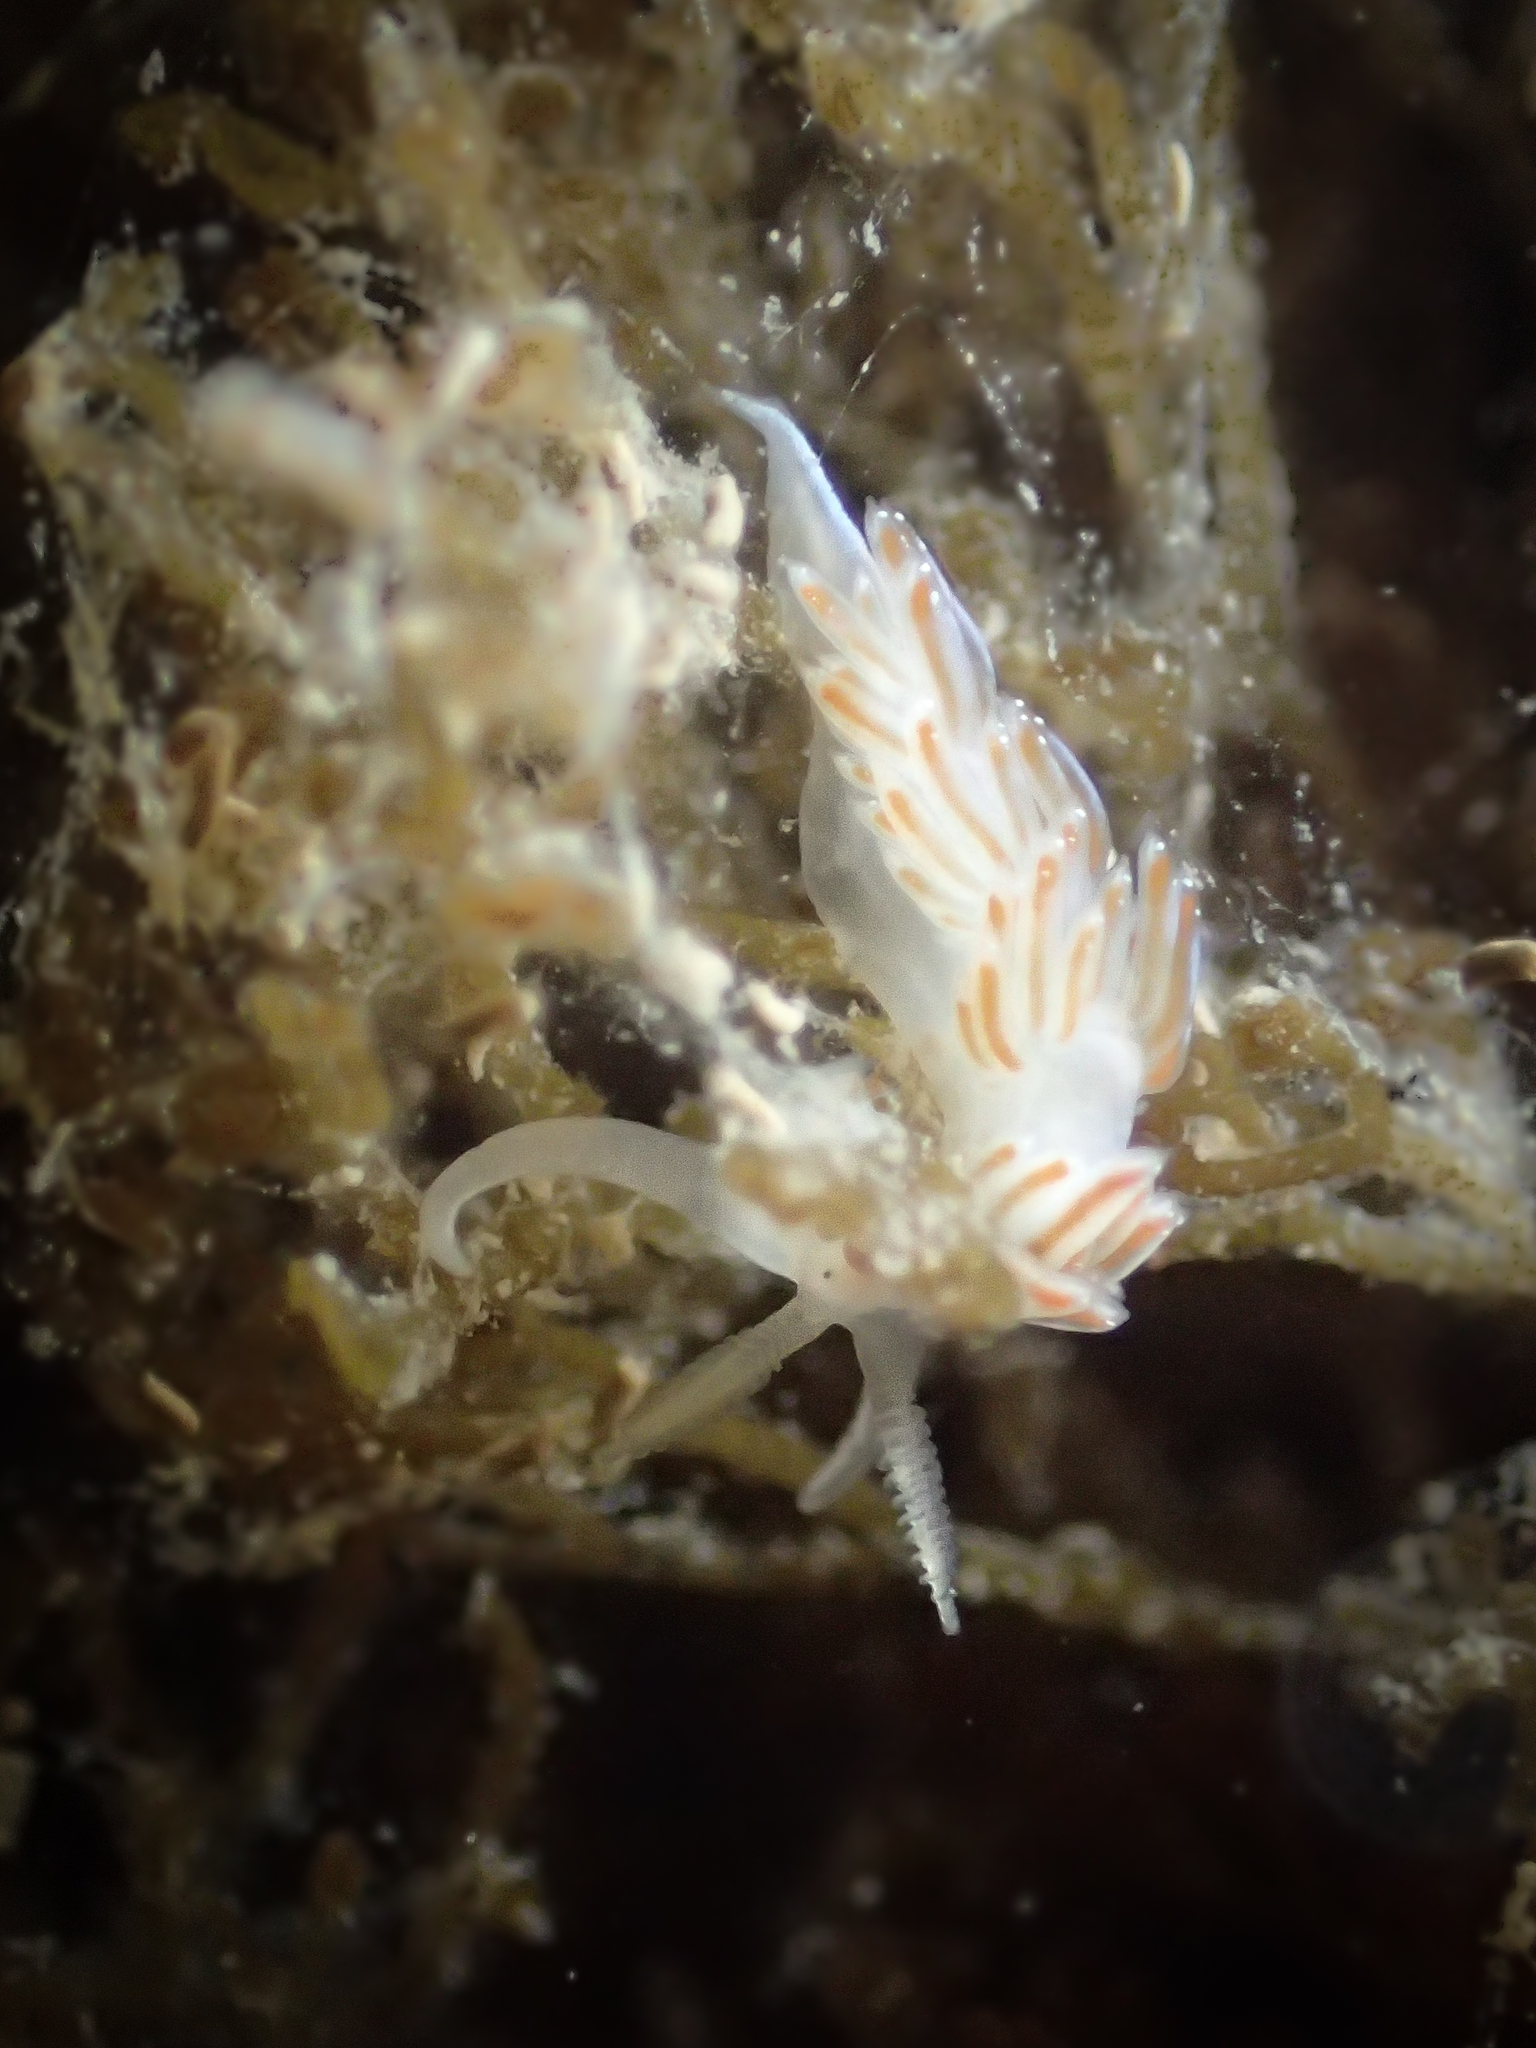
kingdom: Animalia
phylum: Mollusca
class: Gastropoda
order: Nudibranchia
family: Facelinidae
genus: Facelina
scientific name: Facelina auriculata
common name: Slender facelina
